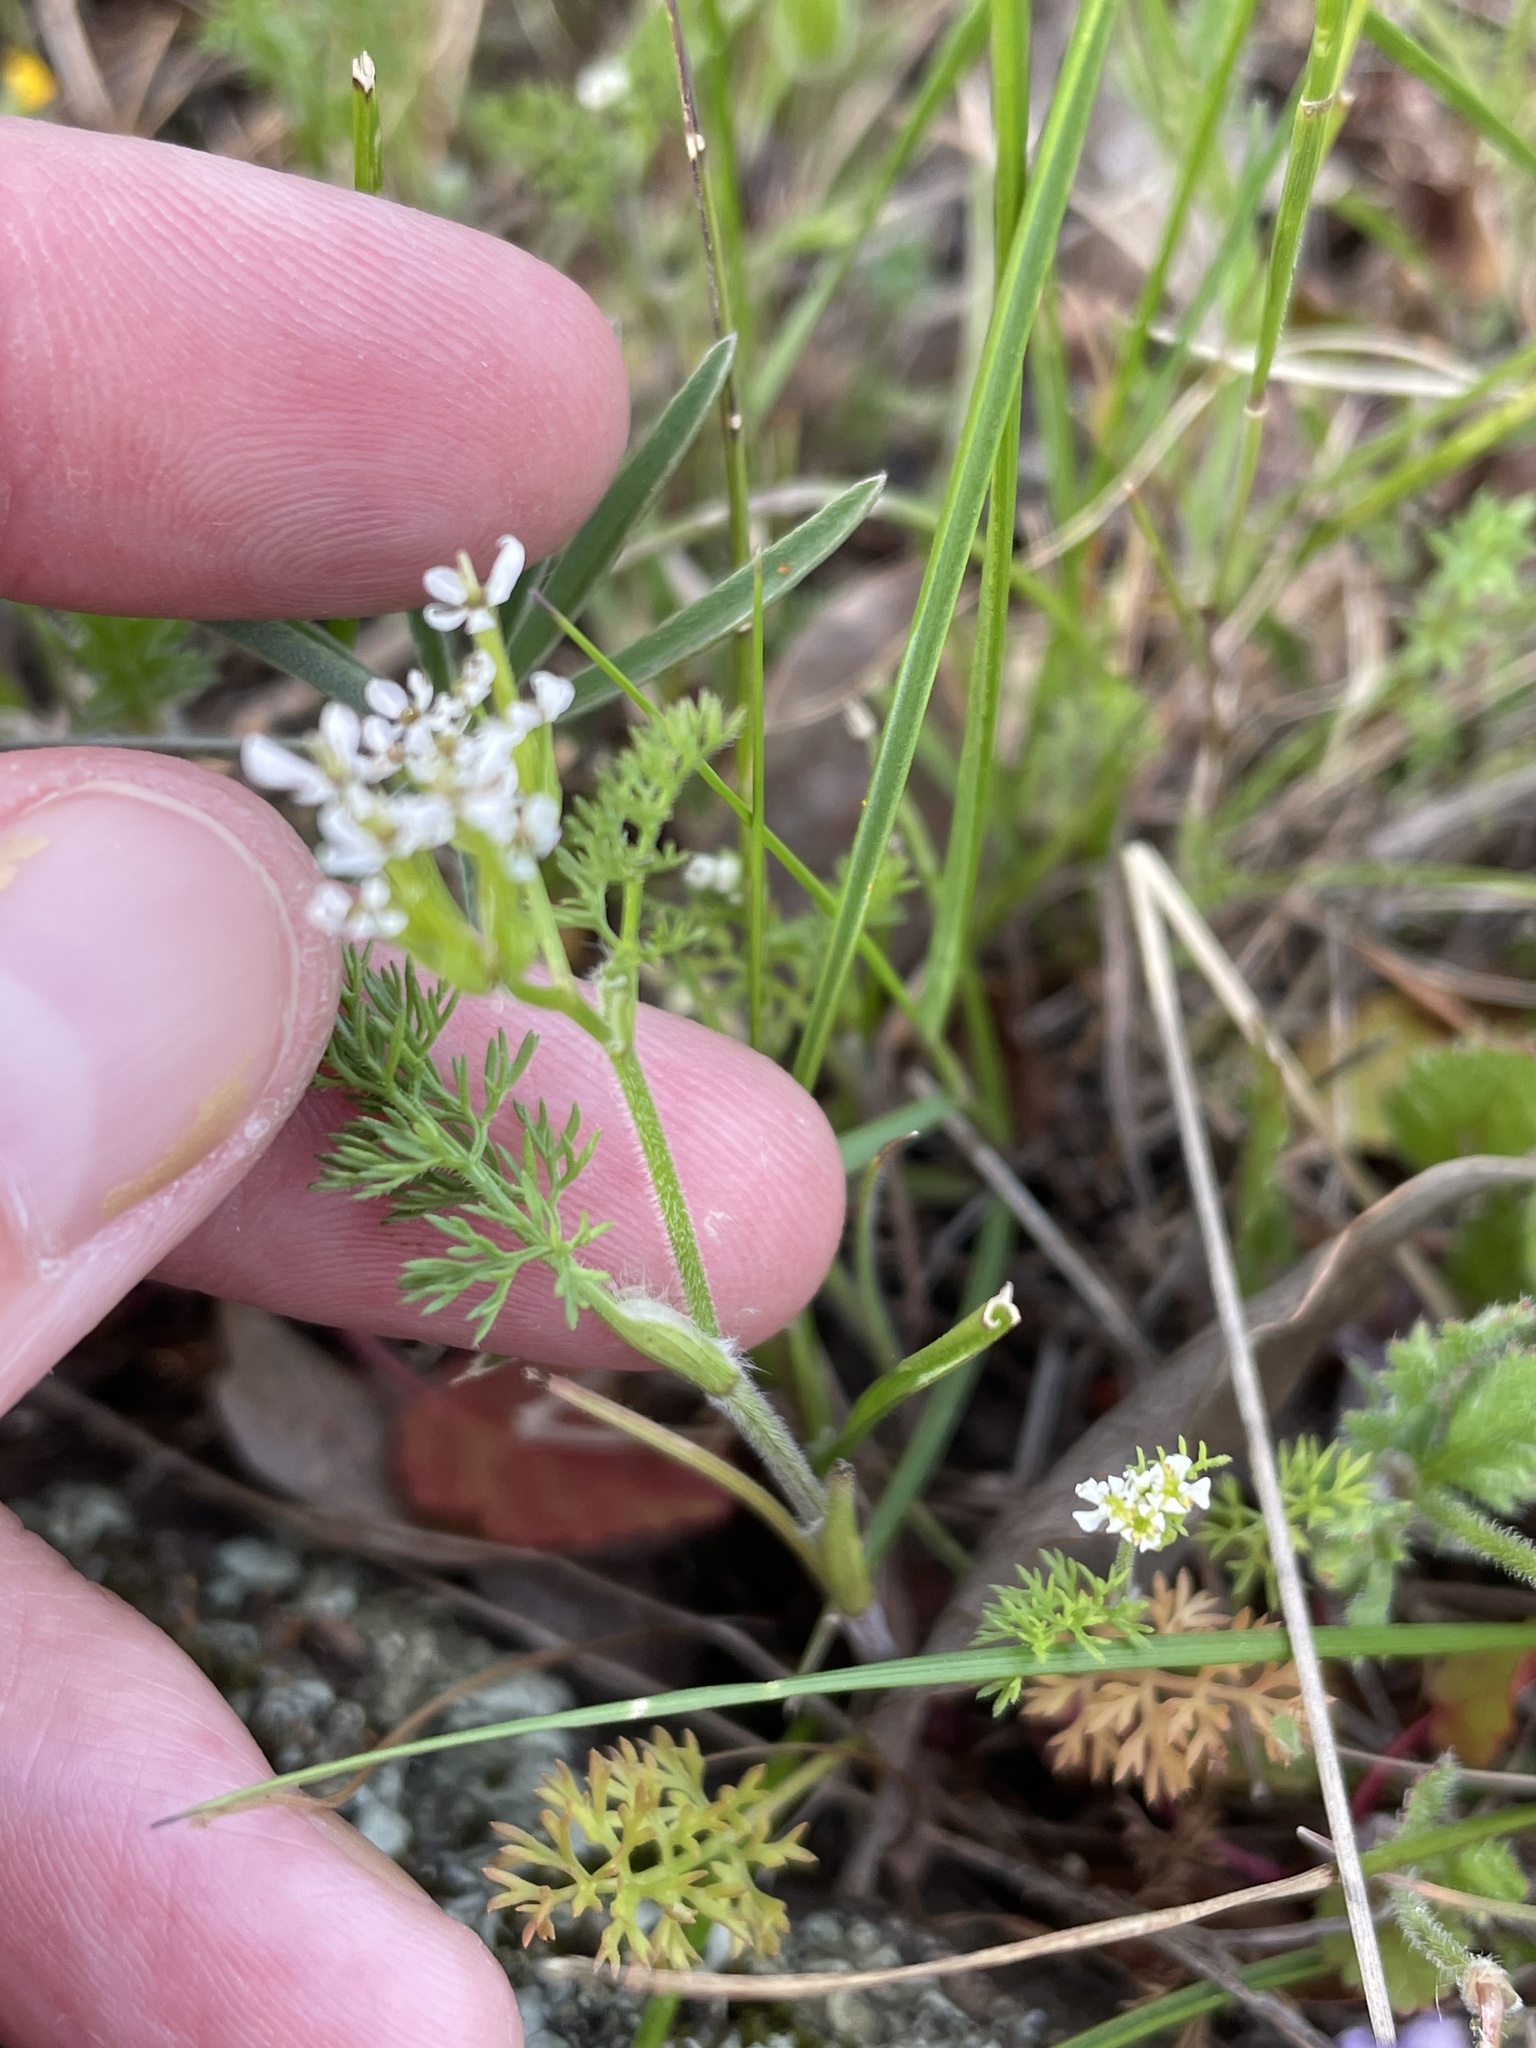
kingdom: Plantae
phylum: Tracheophyta
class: Magnoliopsida
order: Apiales
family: Apiaceae
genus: Scandix
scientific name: Scandix pecten-veneris
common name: Shepherd's-needle
